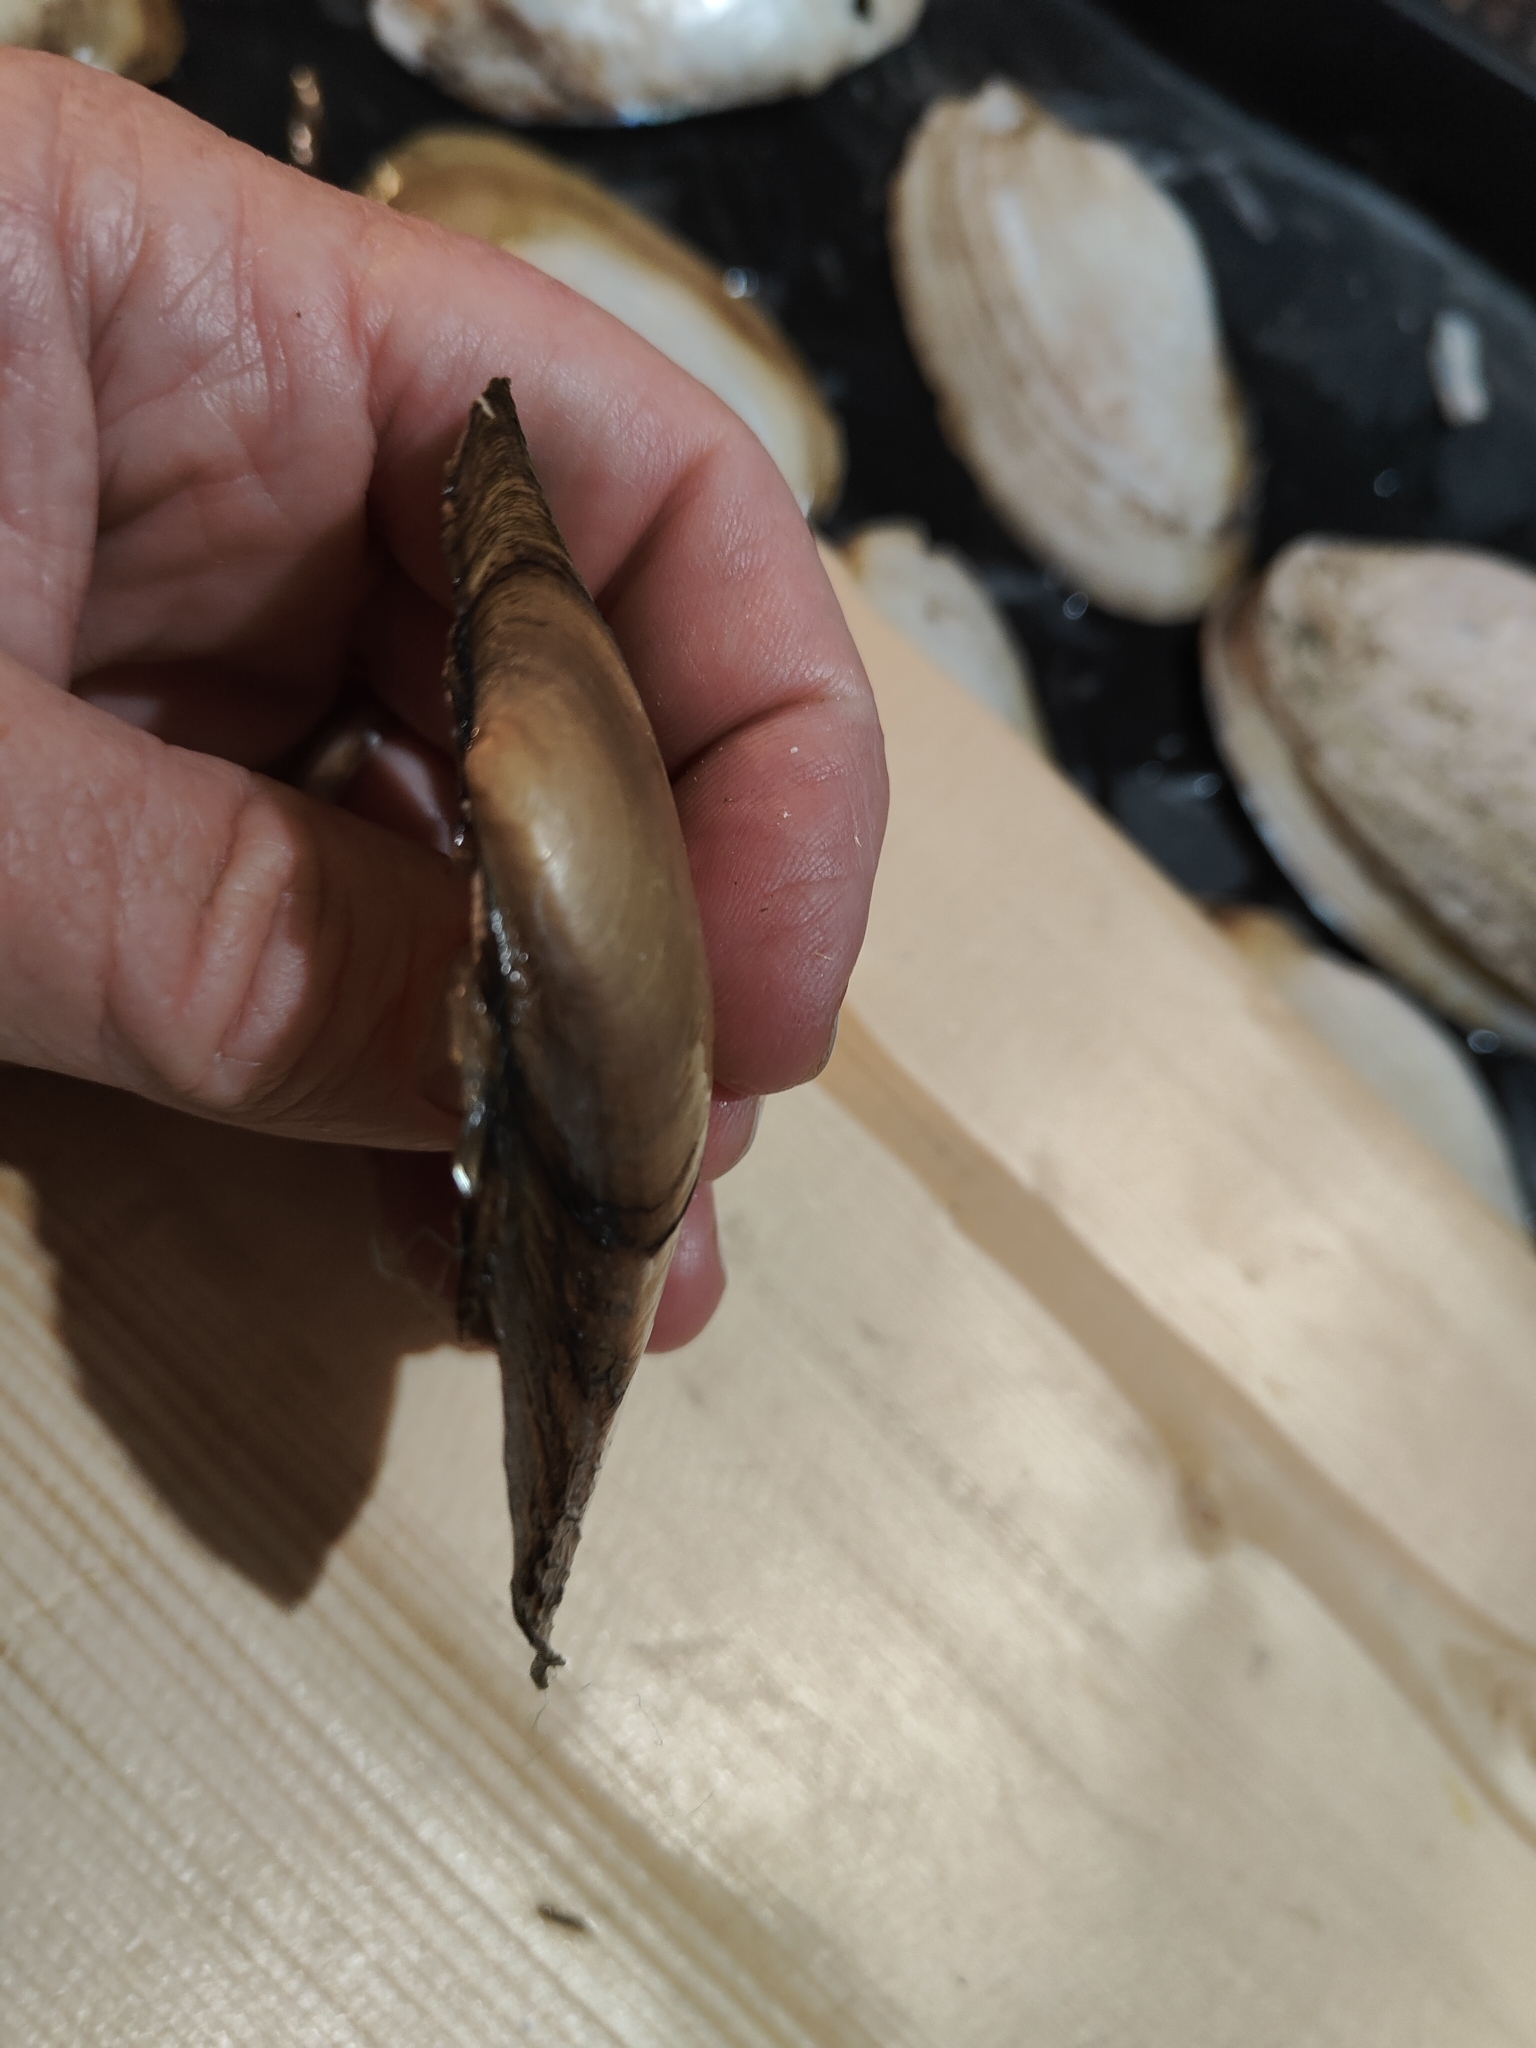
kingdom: Animalia
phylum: Mollusca
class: Bivalvia
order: Unionida
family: Unionidae
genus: Potamilus
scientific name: Potamilus fragilis
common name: Fragile papershell
